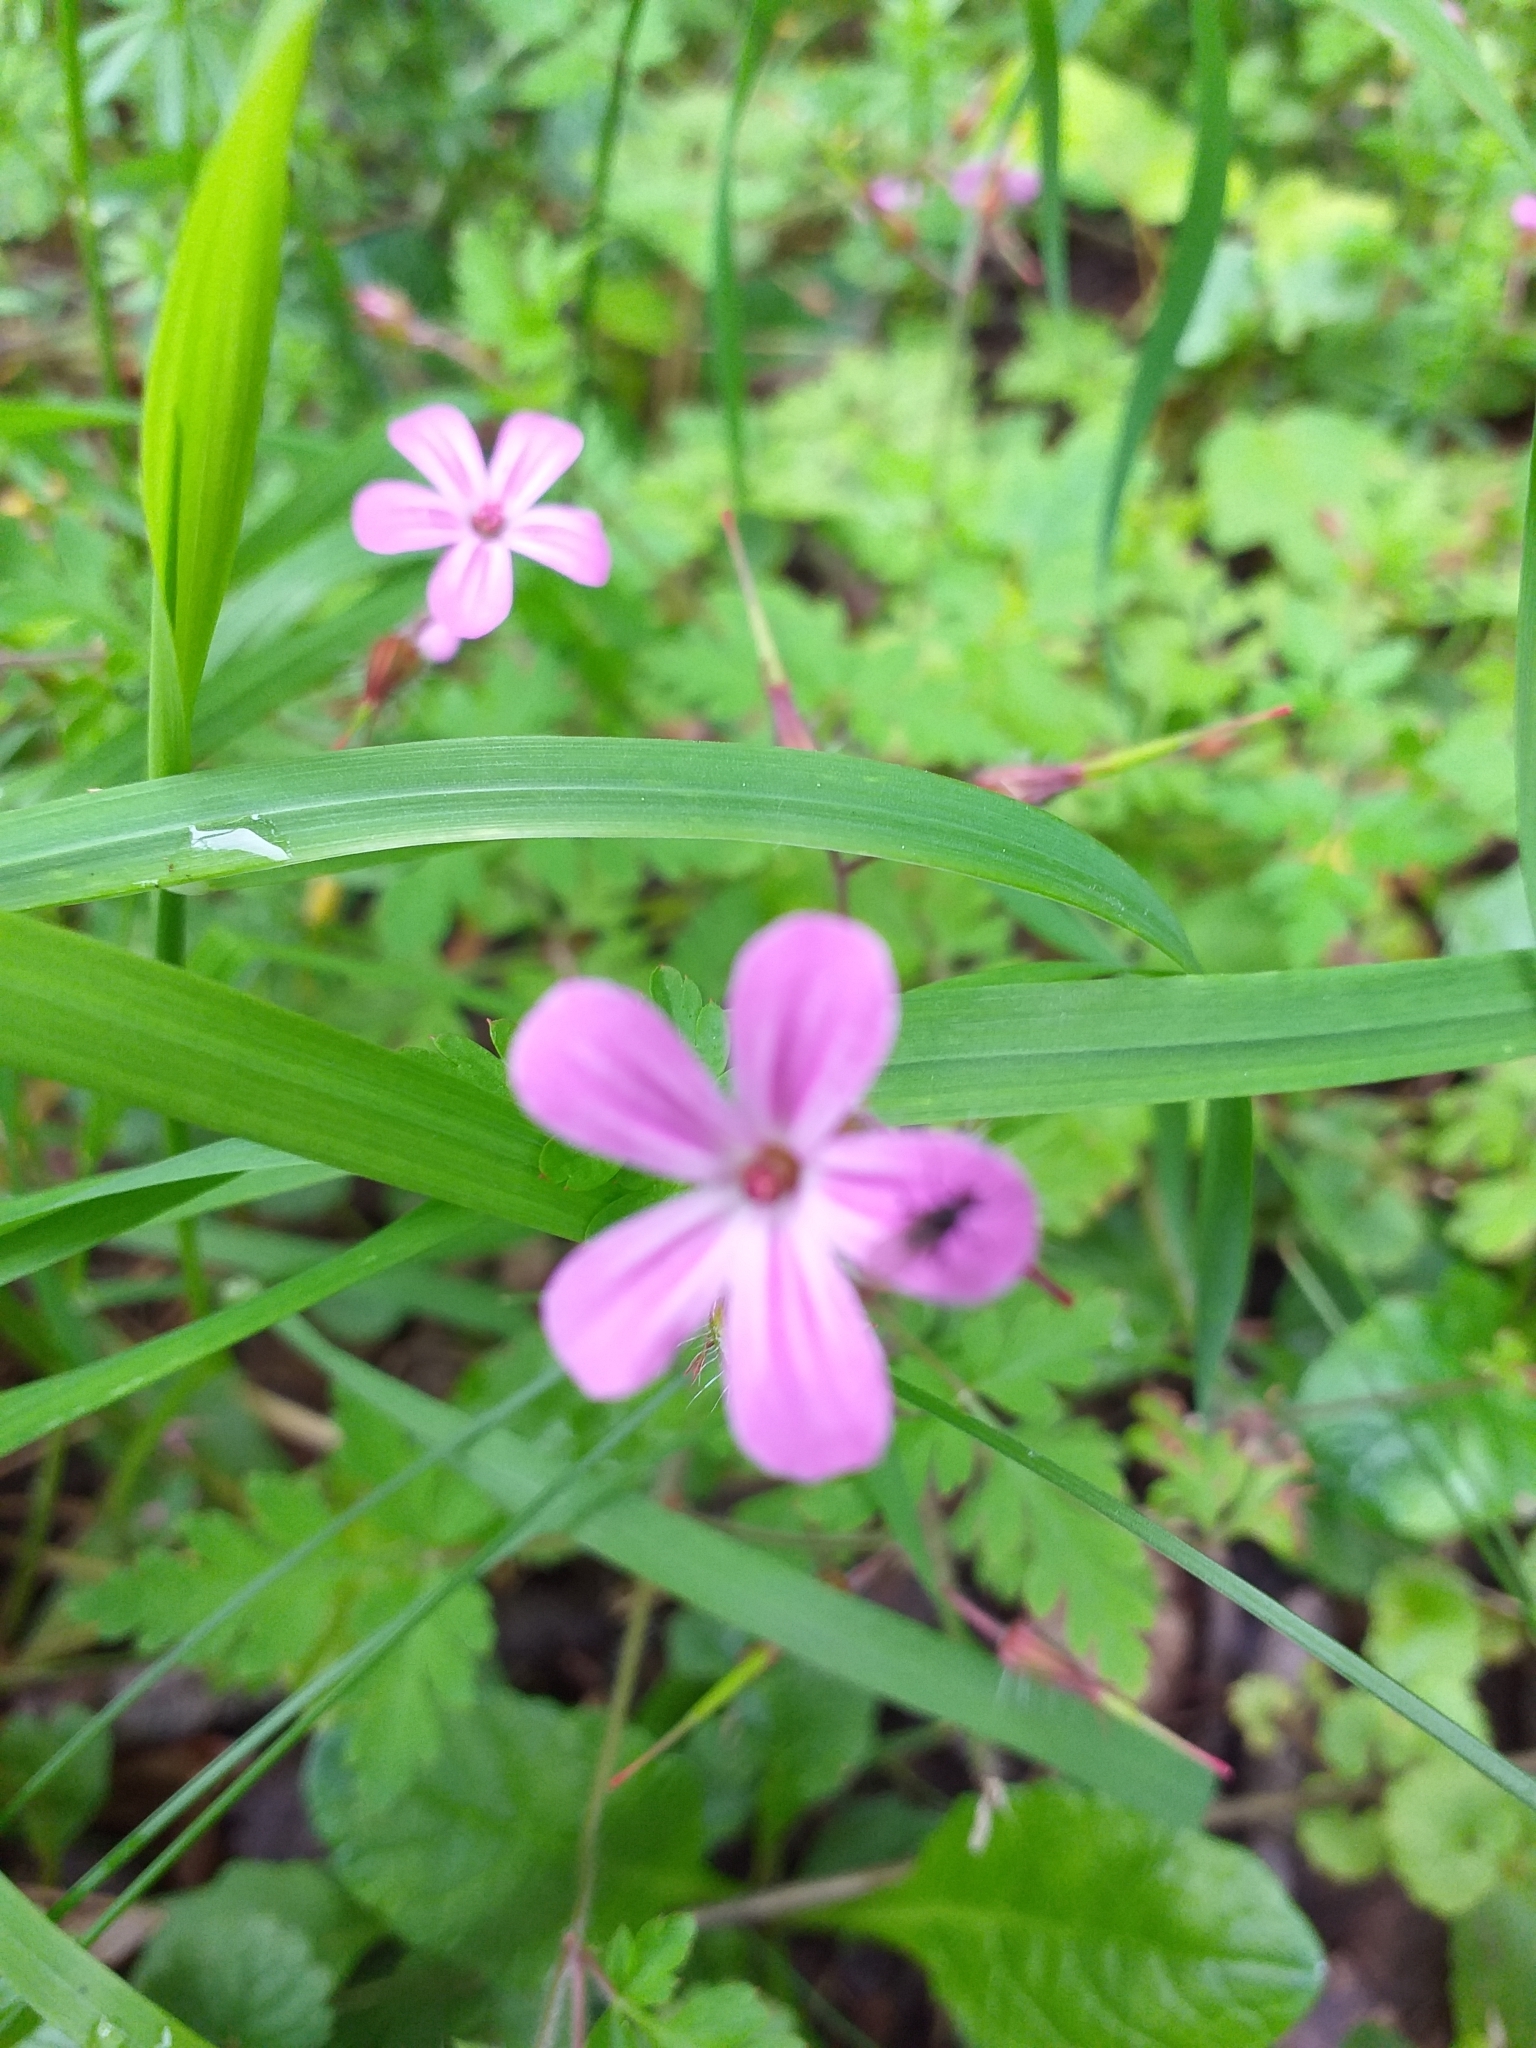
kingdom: Plantae
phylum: Tracheophyta
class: Magnoliopsida
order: Geraniales
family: Geraniaceae
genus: Geranium
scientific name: Geranium robertianum
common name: Herb-robert
